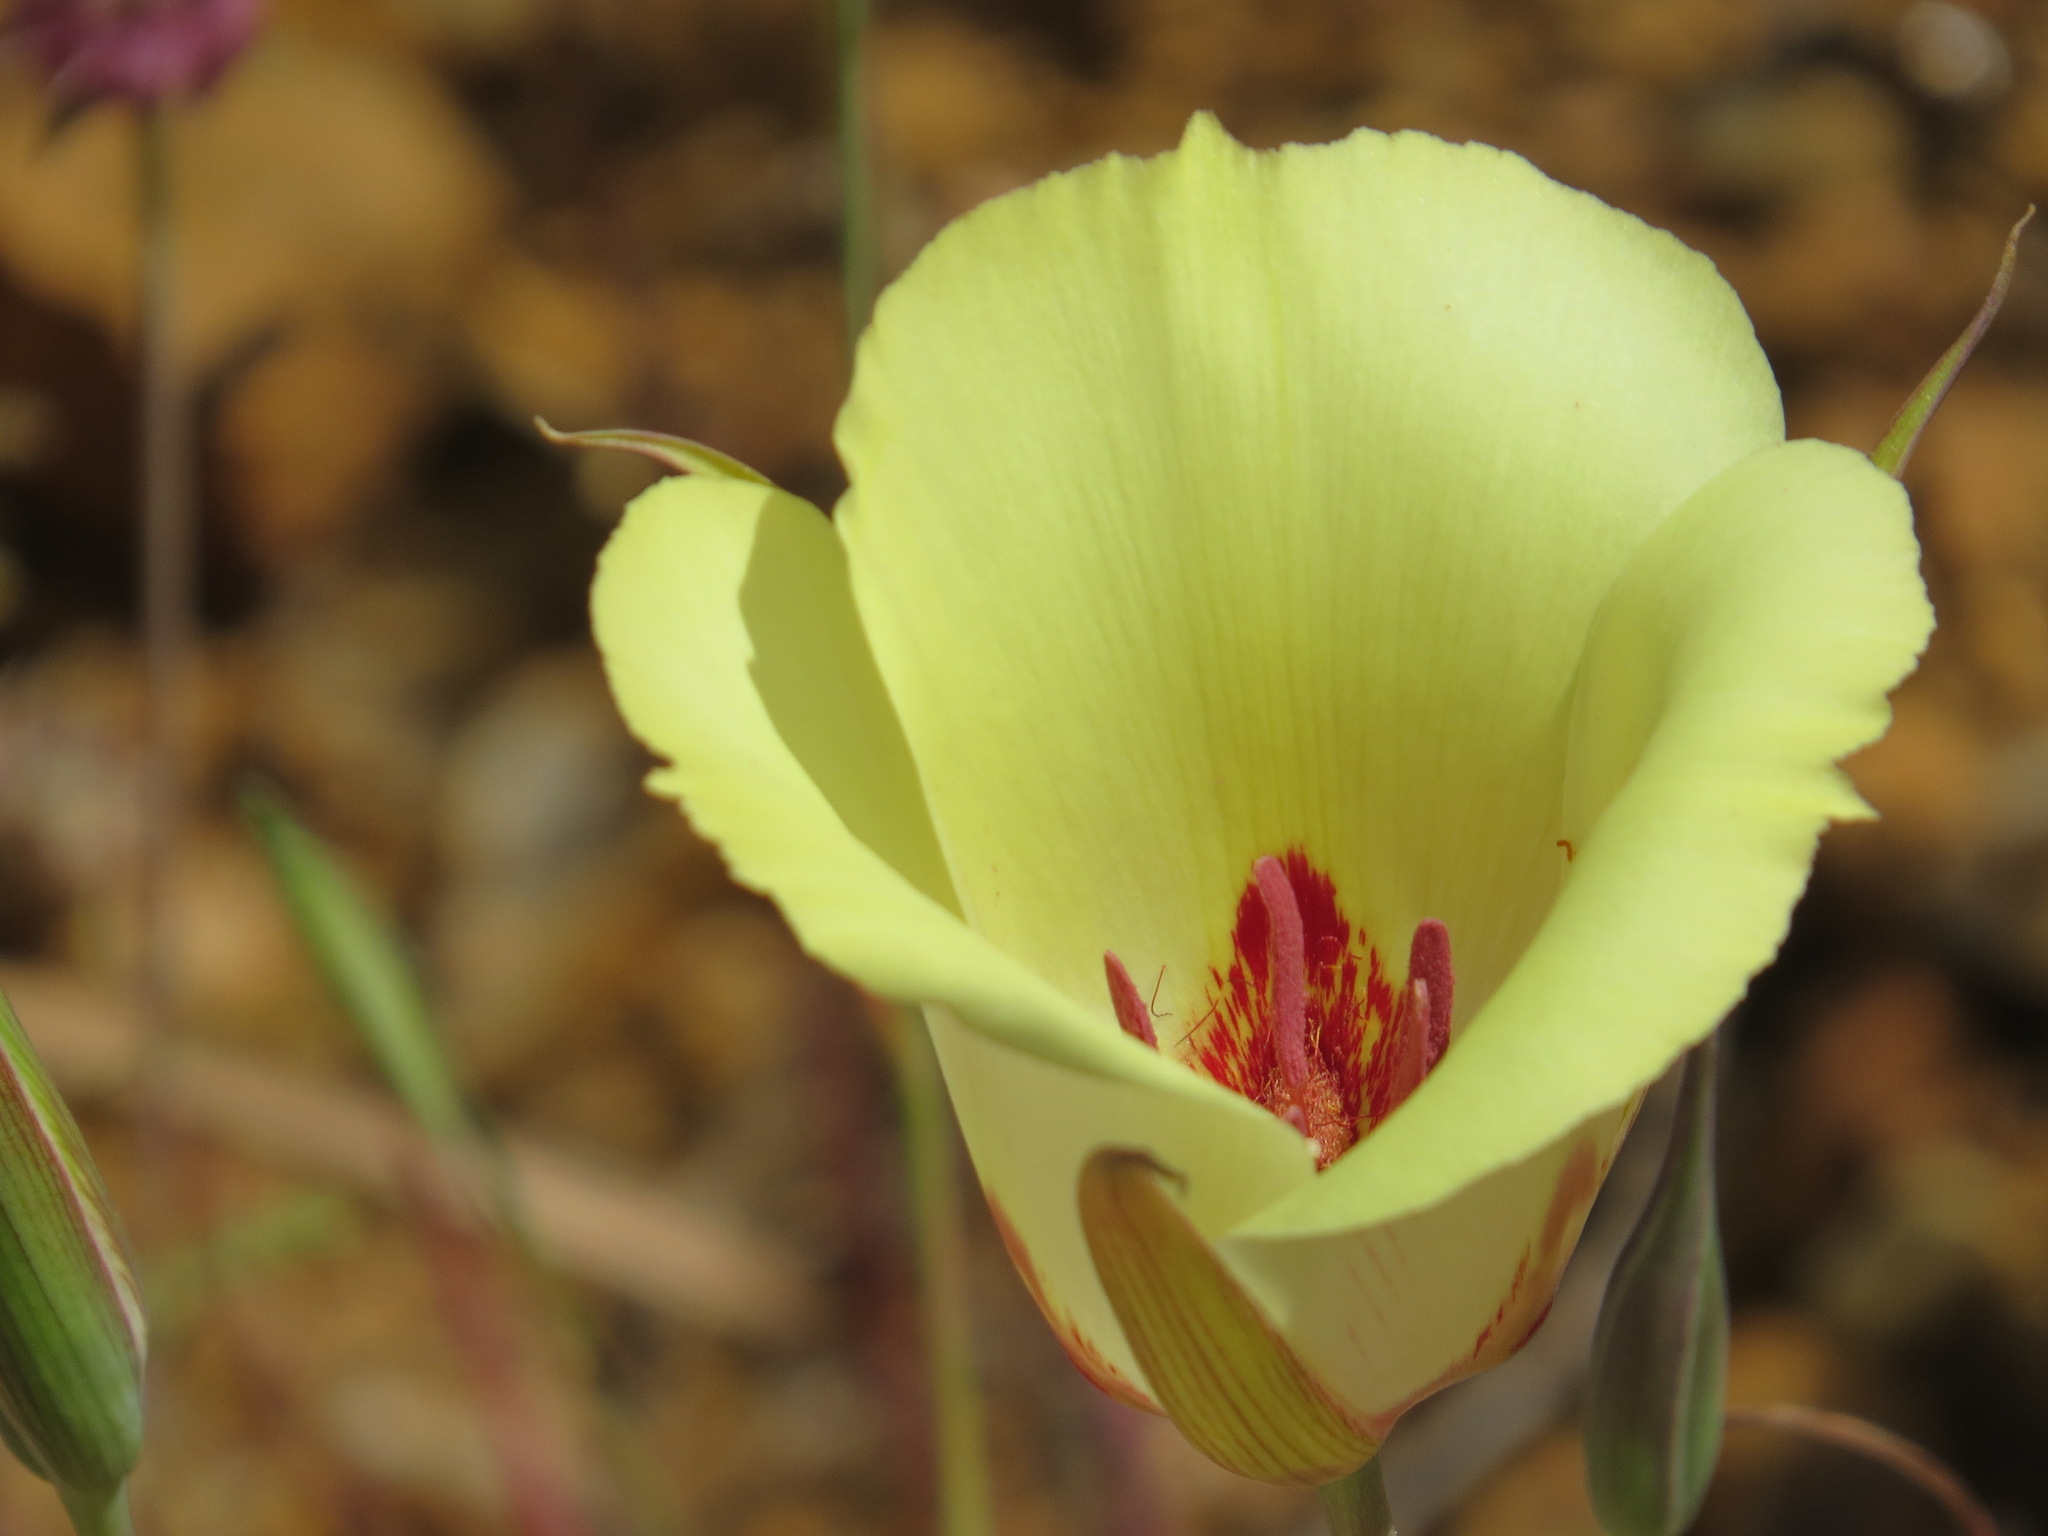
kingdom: Plantae
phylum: Tracheophyta
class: Liliopsida
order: Liliales
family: Liliaceae
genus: Calochortus
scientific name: Calochortus simulans
